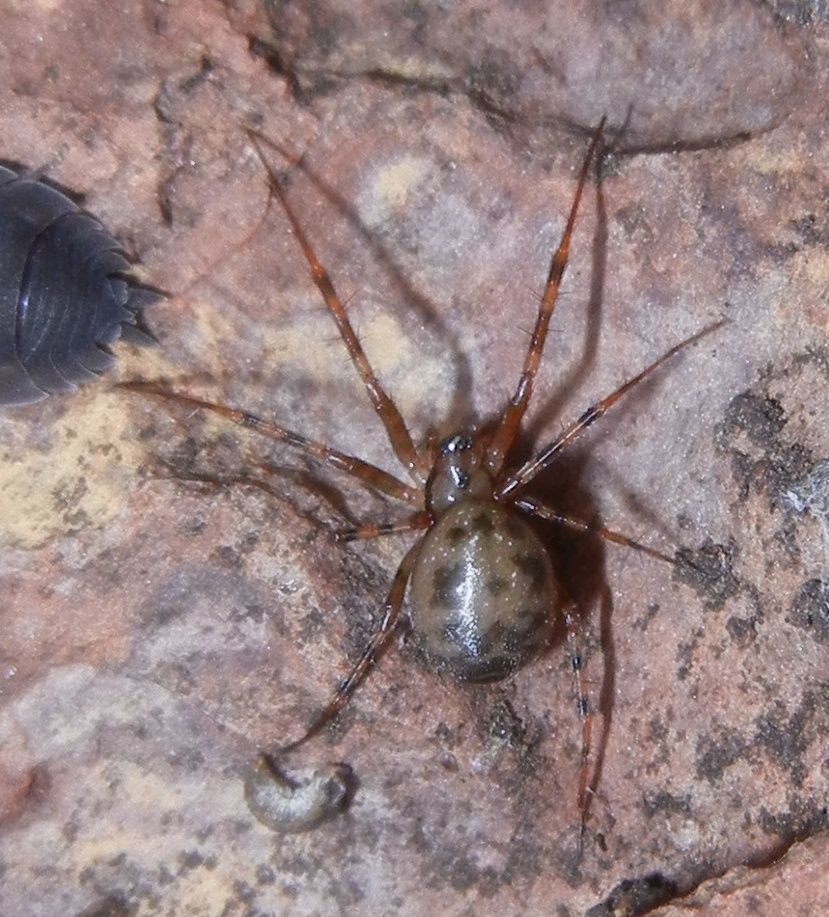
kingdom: Animalia
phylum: Arthropoda
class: Arachnida
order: Araneae
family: Linyphiidae
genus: Labulla
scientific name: Labulla thoracica
